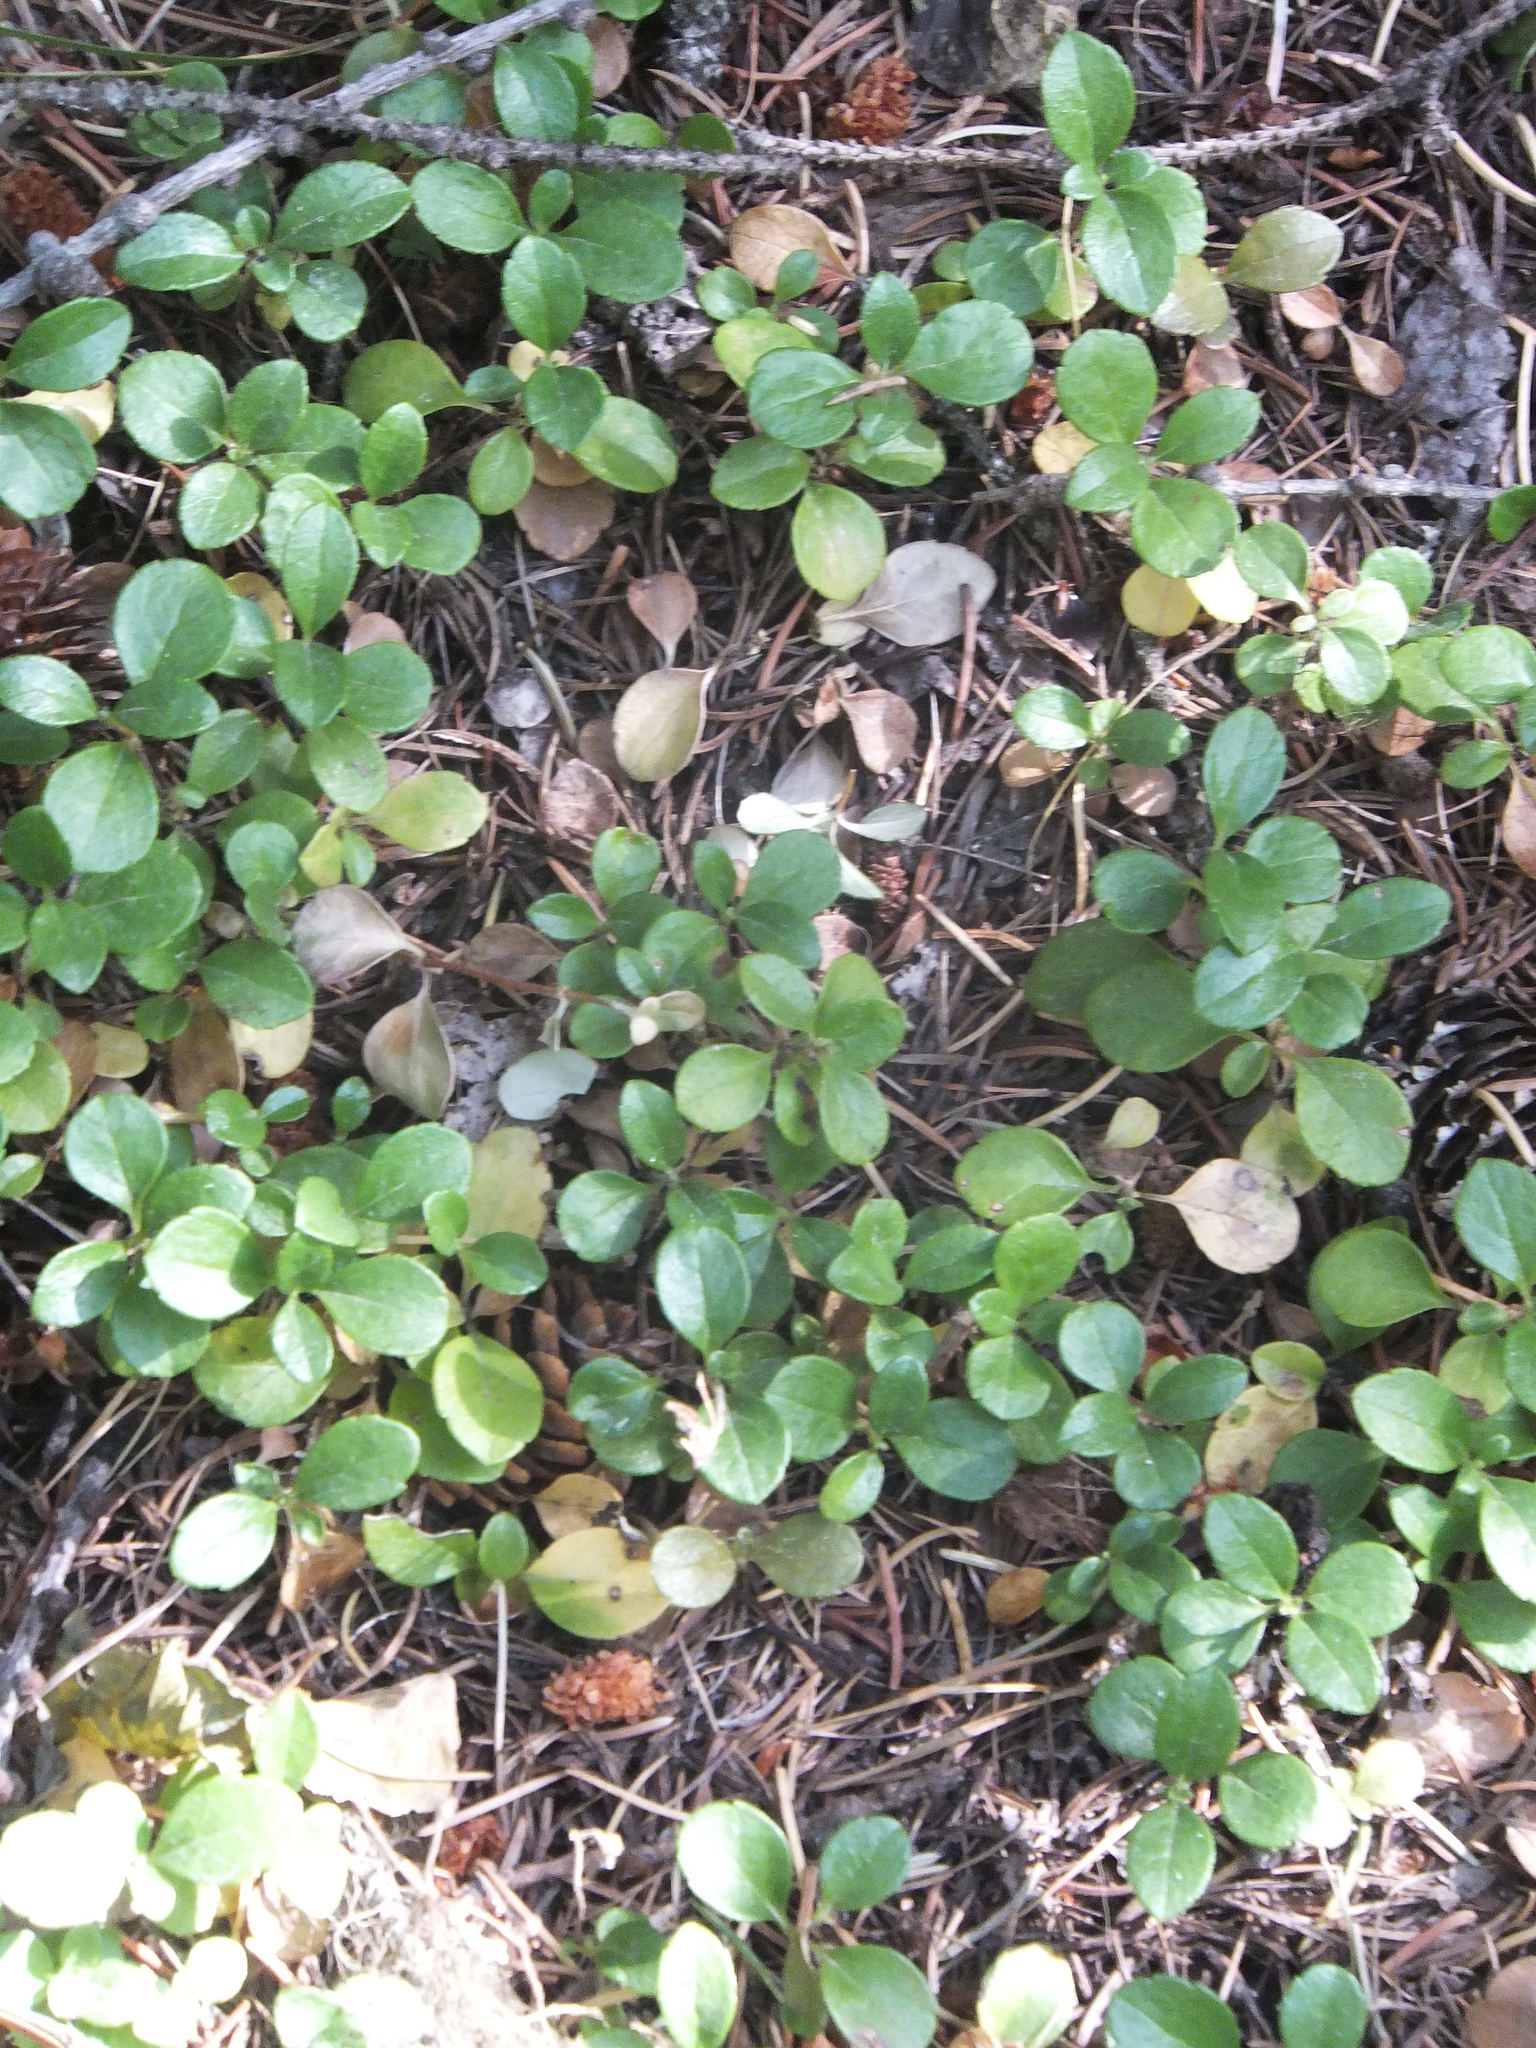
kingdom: Plantae
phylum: Tracheophyta
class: Magnoliopsida
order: Dipsacales
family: Caprifoliaceae
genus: Linnaea
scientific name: Linnaea borealis
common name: Twinflower
